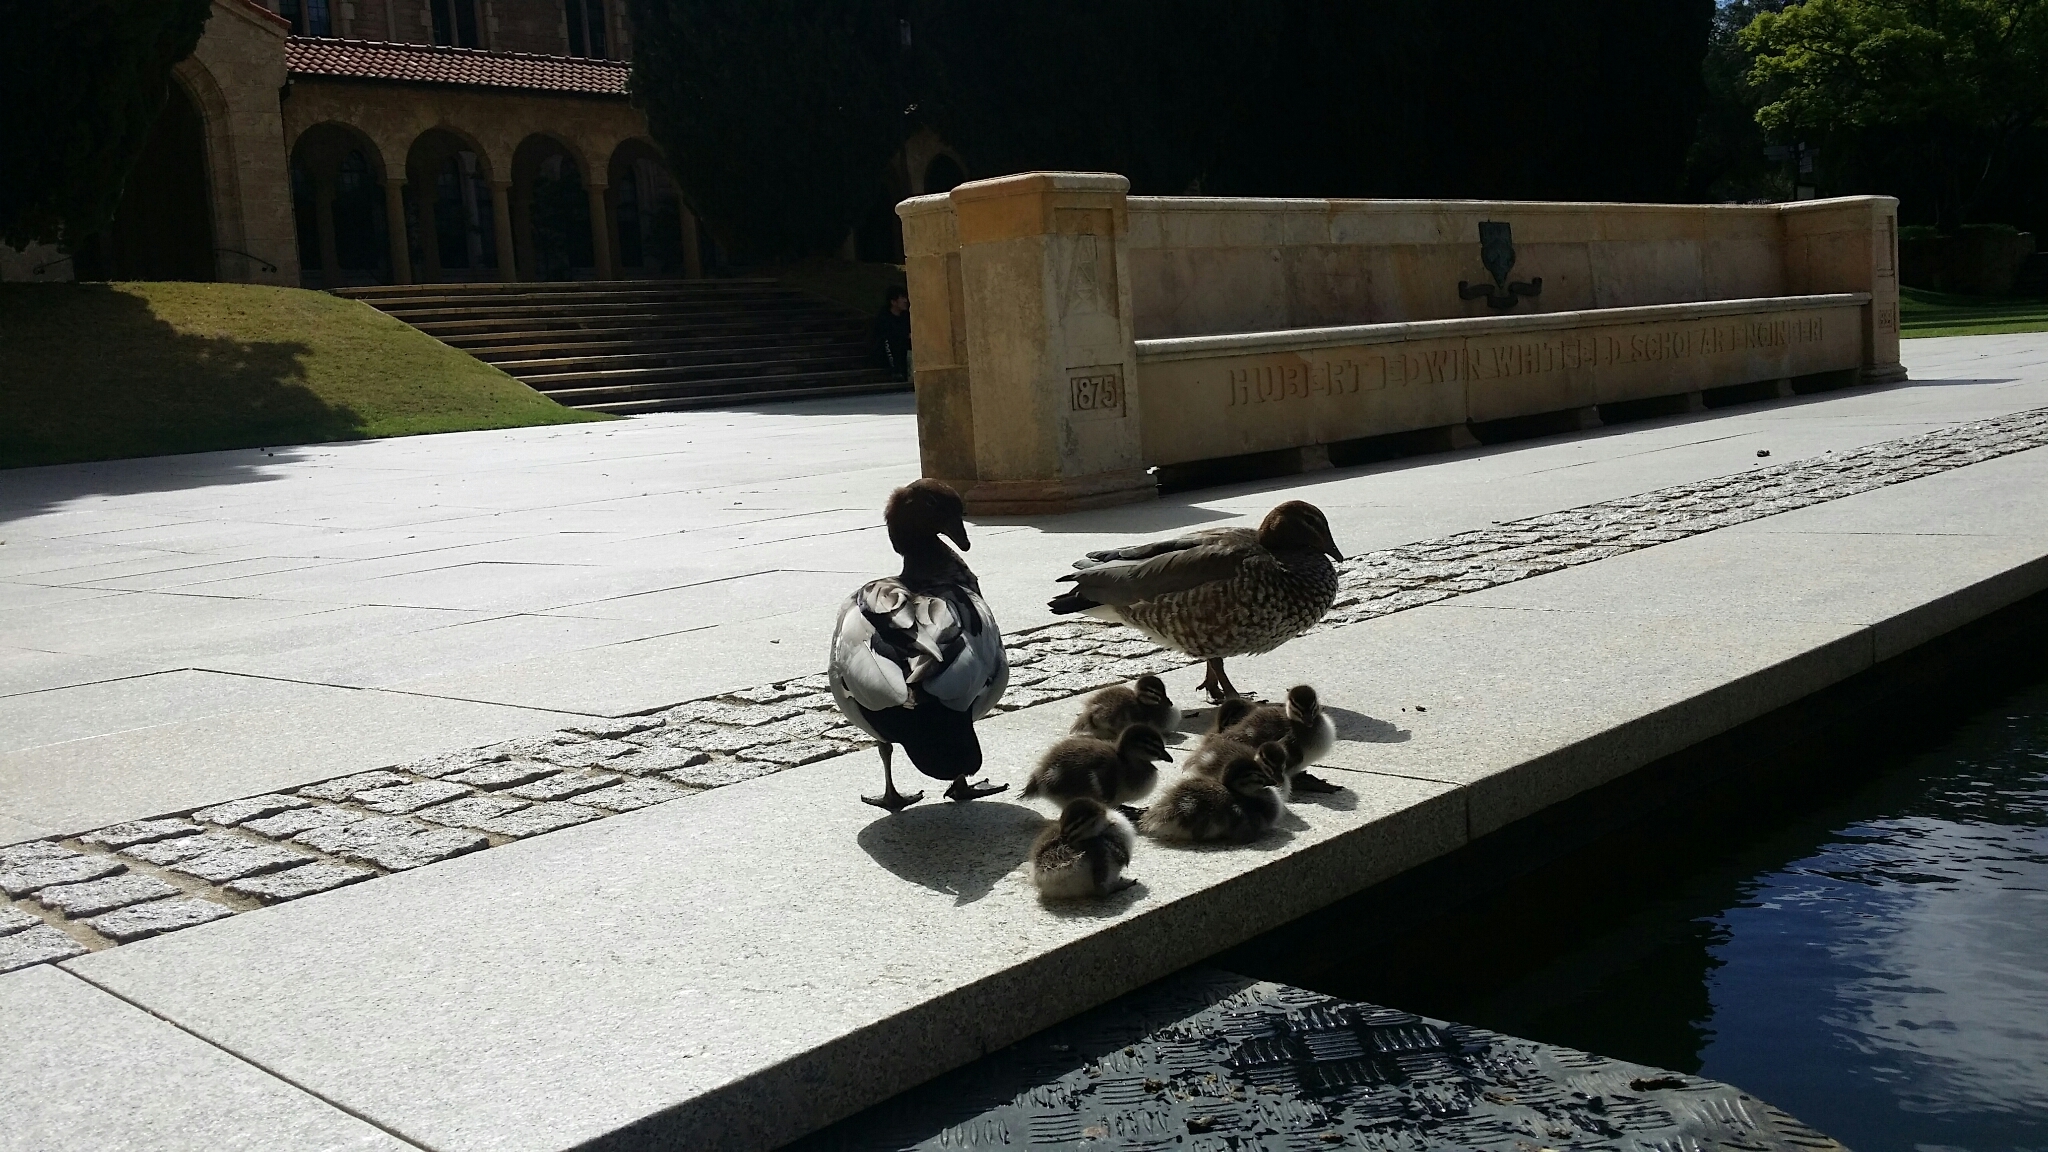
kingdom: Animalia
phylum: Chordata
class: Aves
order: Anseriformes
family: Anatidae
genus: Chenonetta
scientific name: Chenonetta jubata
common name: Maned duck
